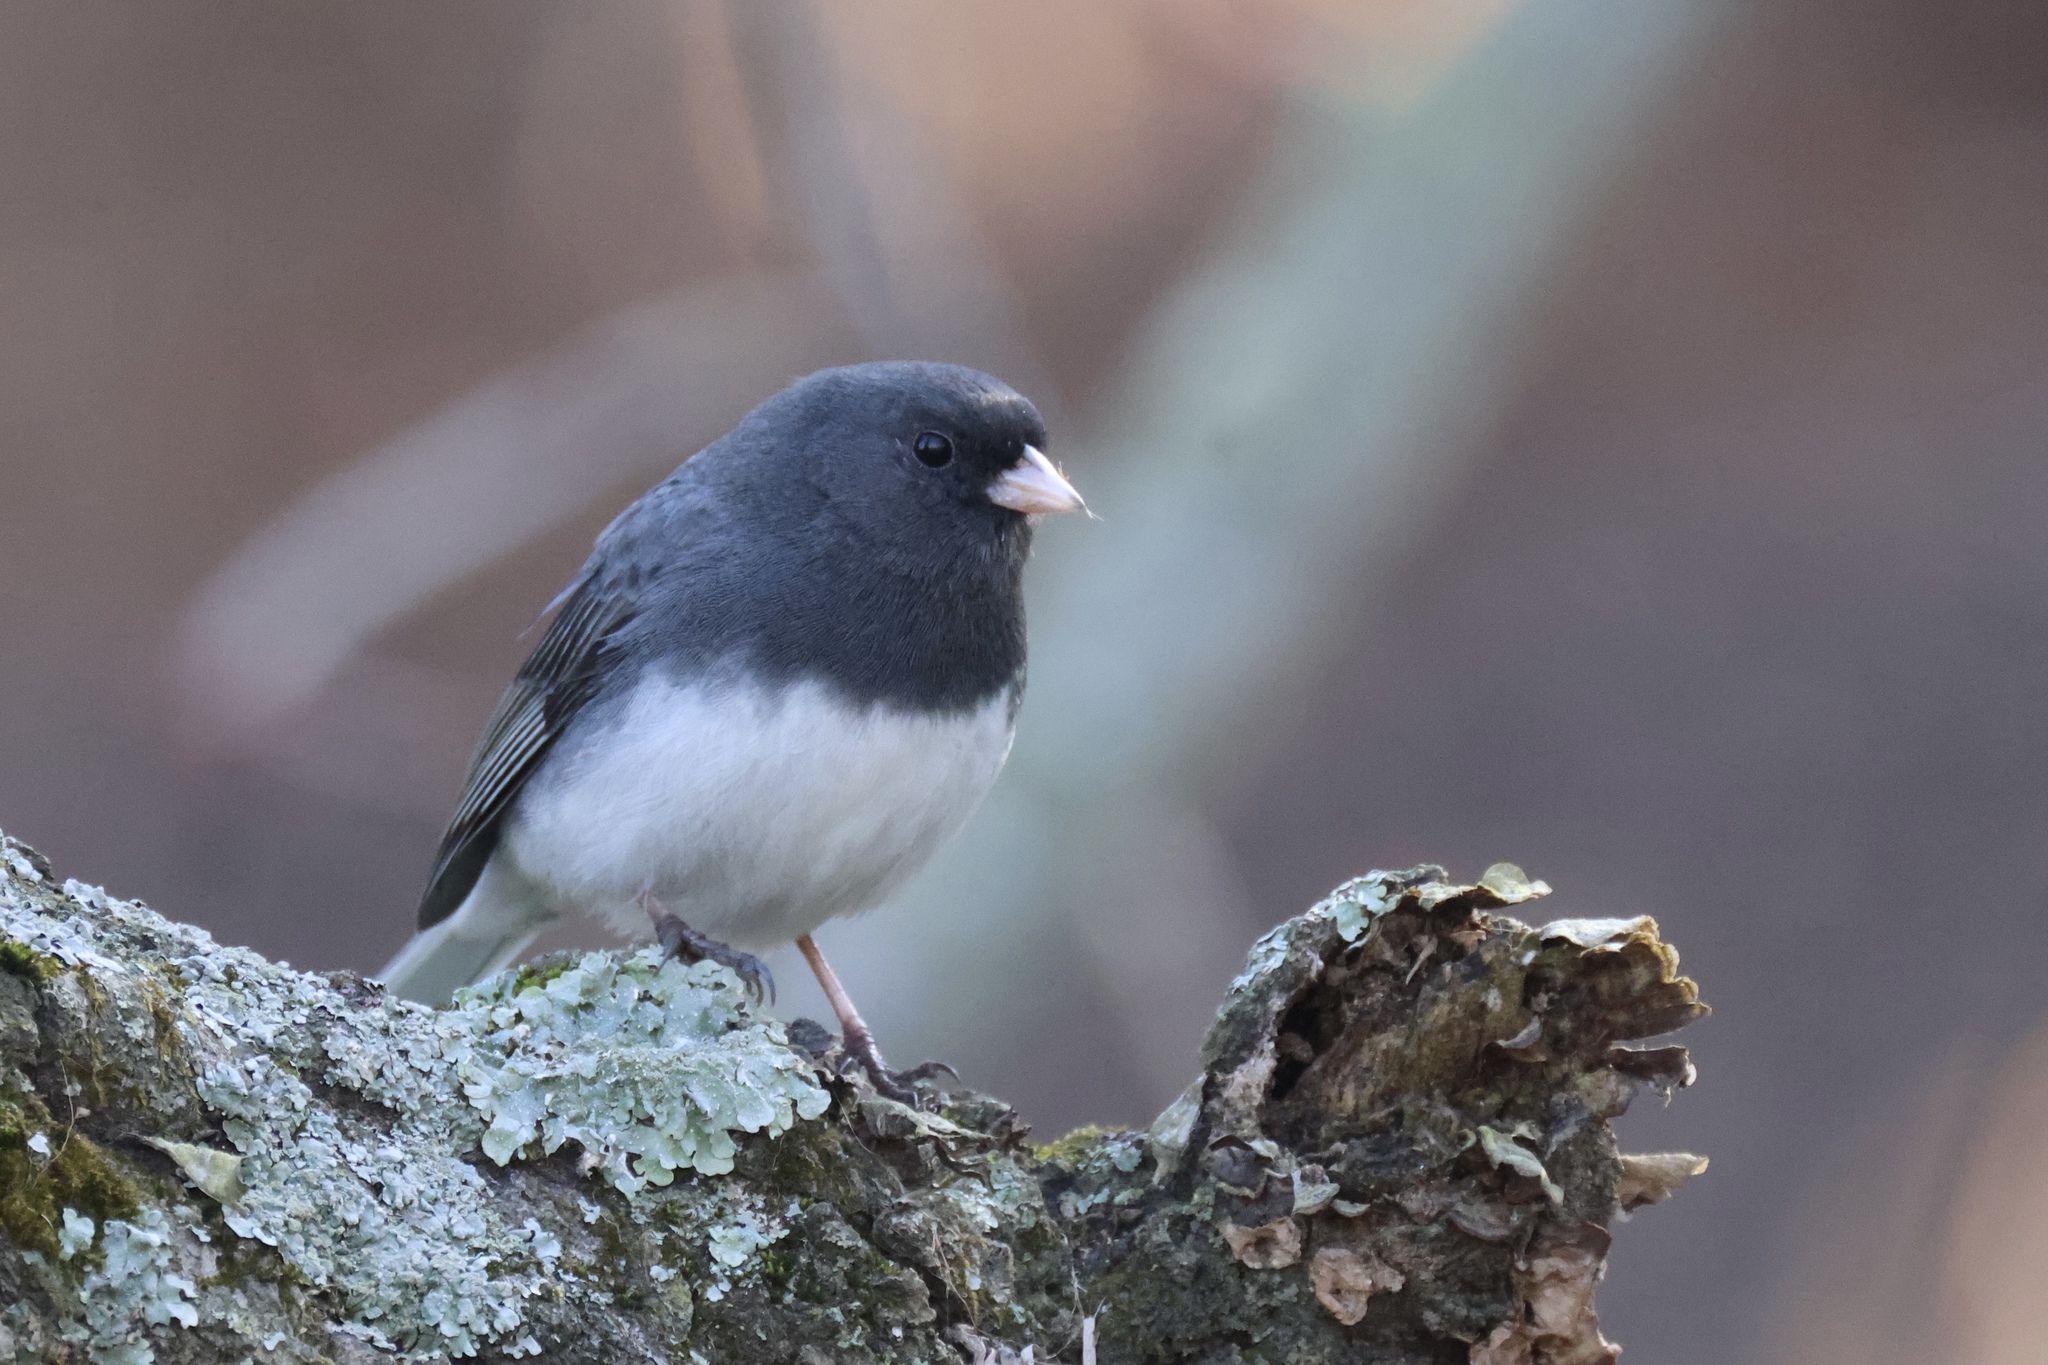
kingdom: Animalia
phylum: Chordata
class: Aves
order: Passeriformes
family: Passerellidae
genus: Junco
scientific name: Junco hyemalis
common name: Dark-eyed junco
